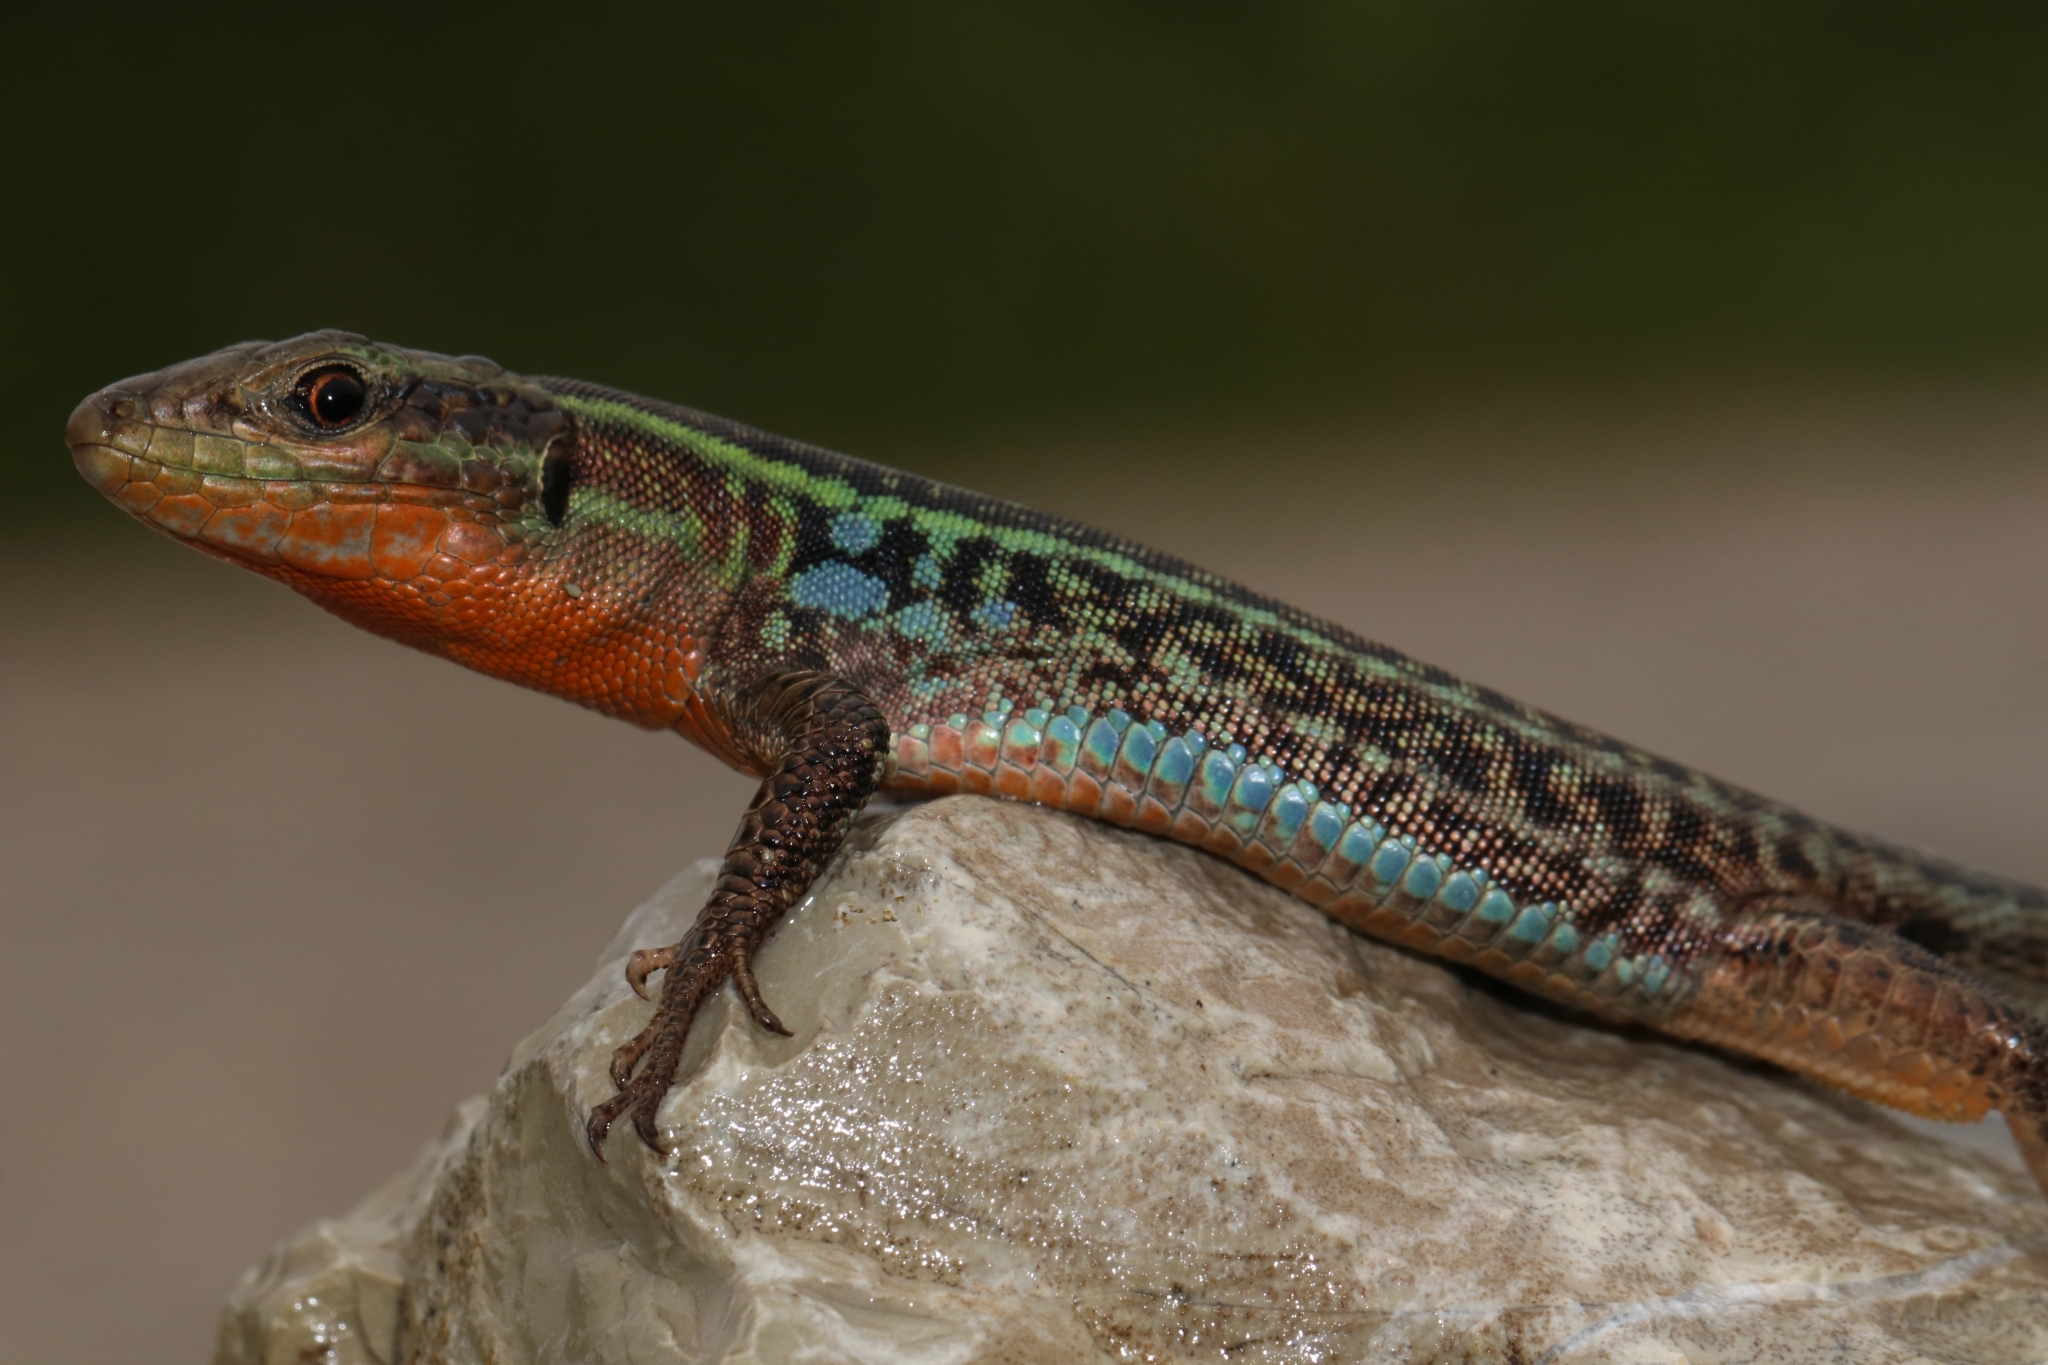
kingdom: Animalia
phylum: Chordata
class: Squamata
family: Lacertidae
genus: Podarcis
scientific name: Podarcis peloponnesiacus
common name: Peloponnese wall lizard
